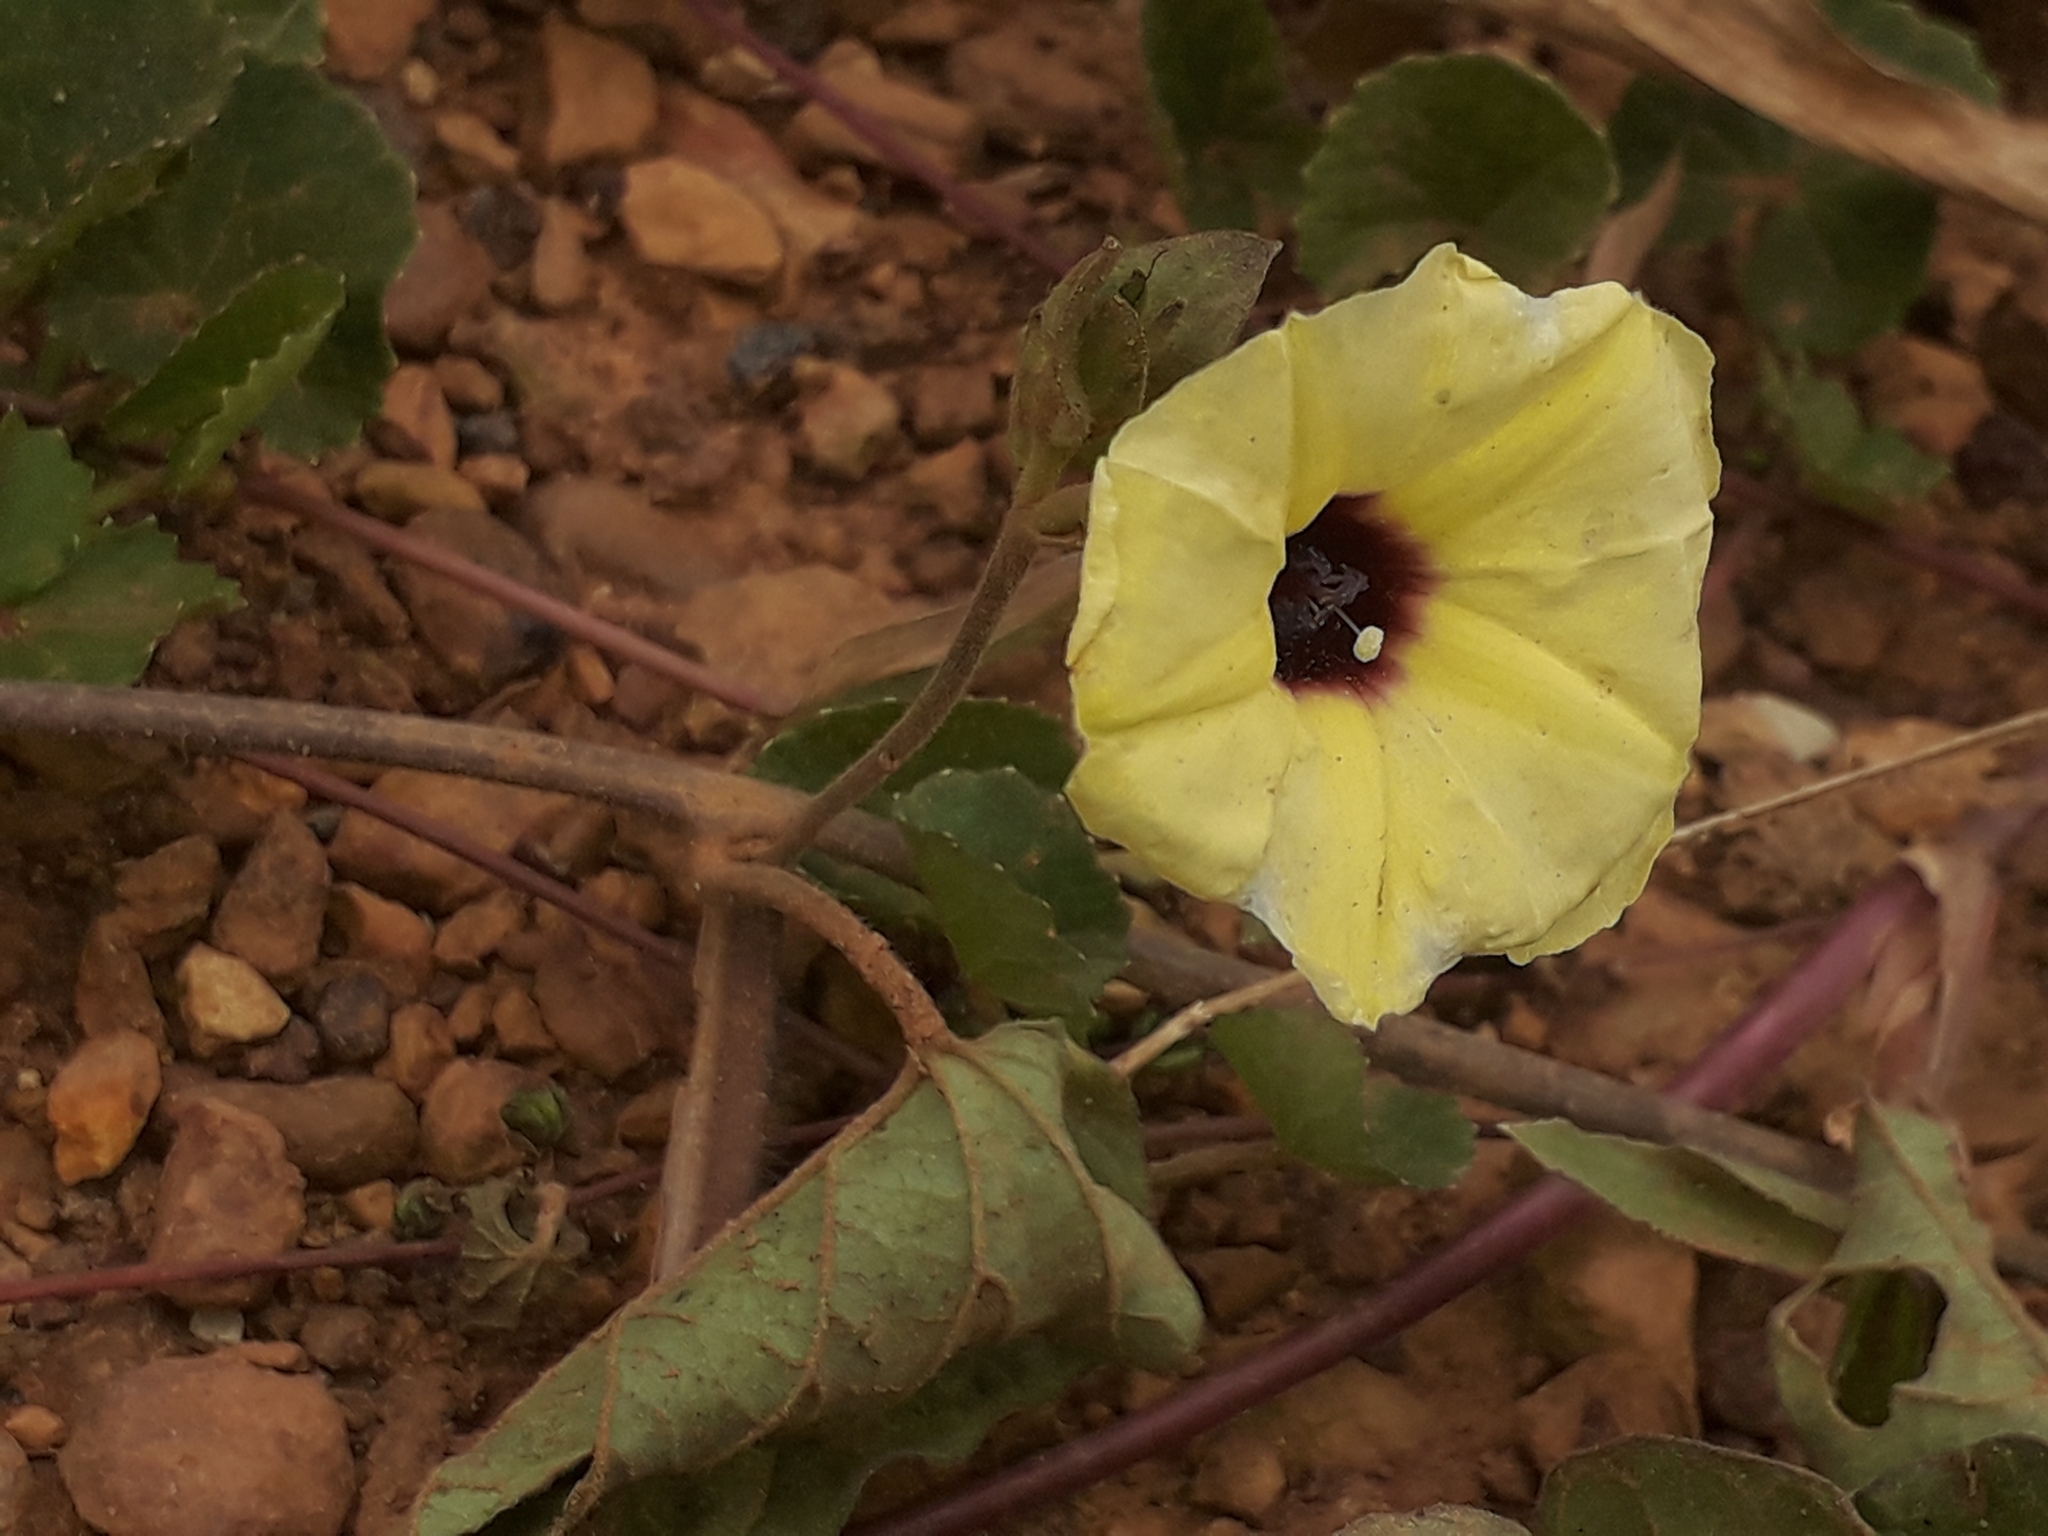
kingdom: Plantae
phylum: Tracheophyta
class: Magnoliopsida
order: Solanales
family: Convolvulaceae
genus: Hewittia
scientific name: Hewittia malabarica
